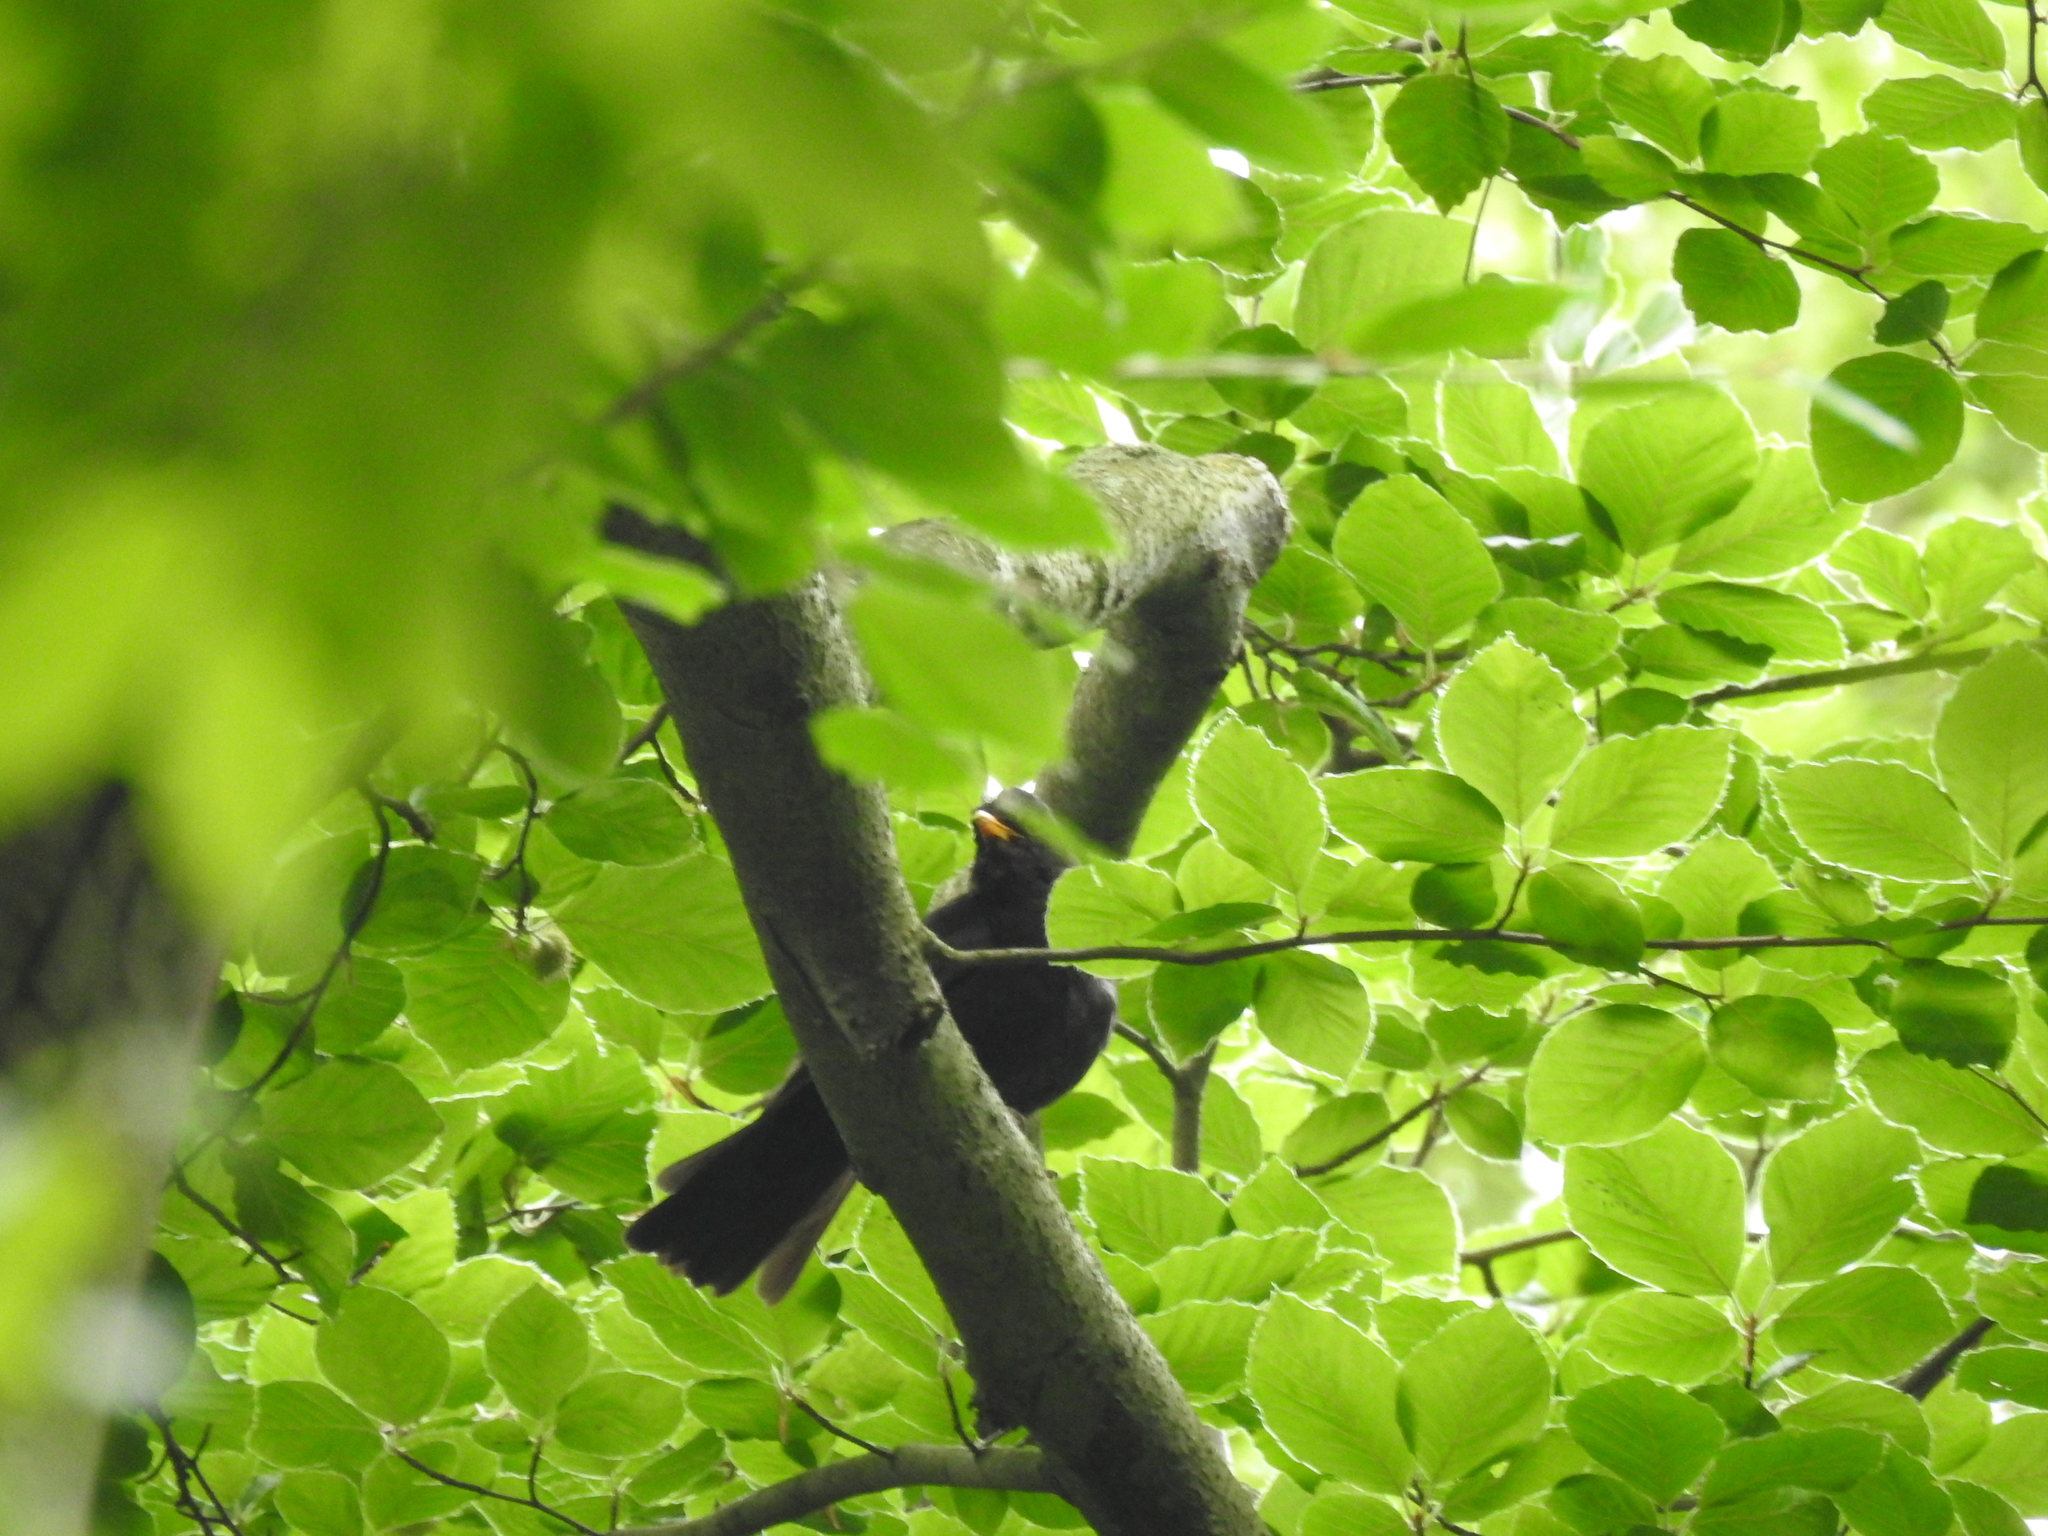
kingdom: Animalia
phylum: Chordata
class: Aves
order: Passeriformes
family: Turdidae
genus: Turdus
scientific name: Turdus merula
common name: Common blackbird
